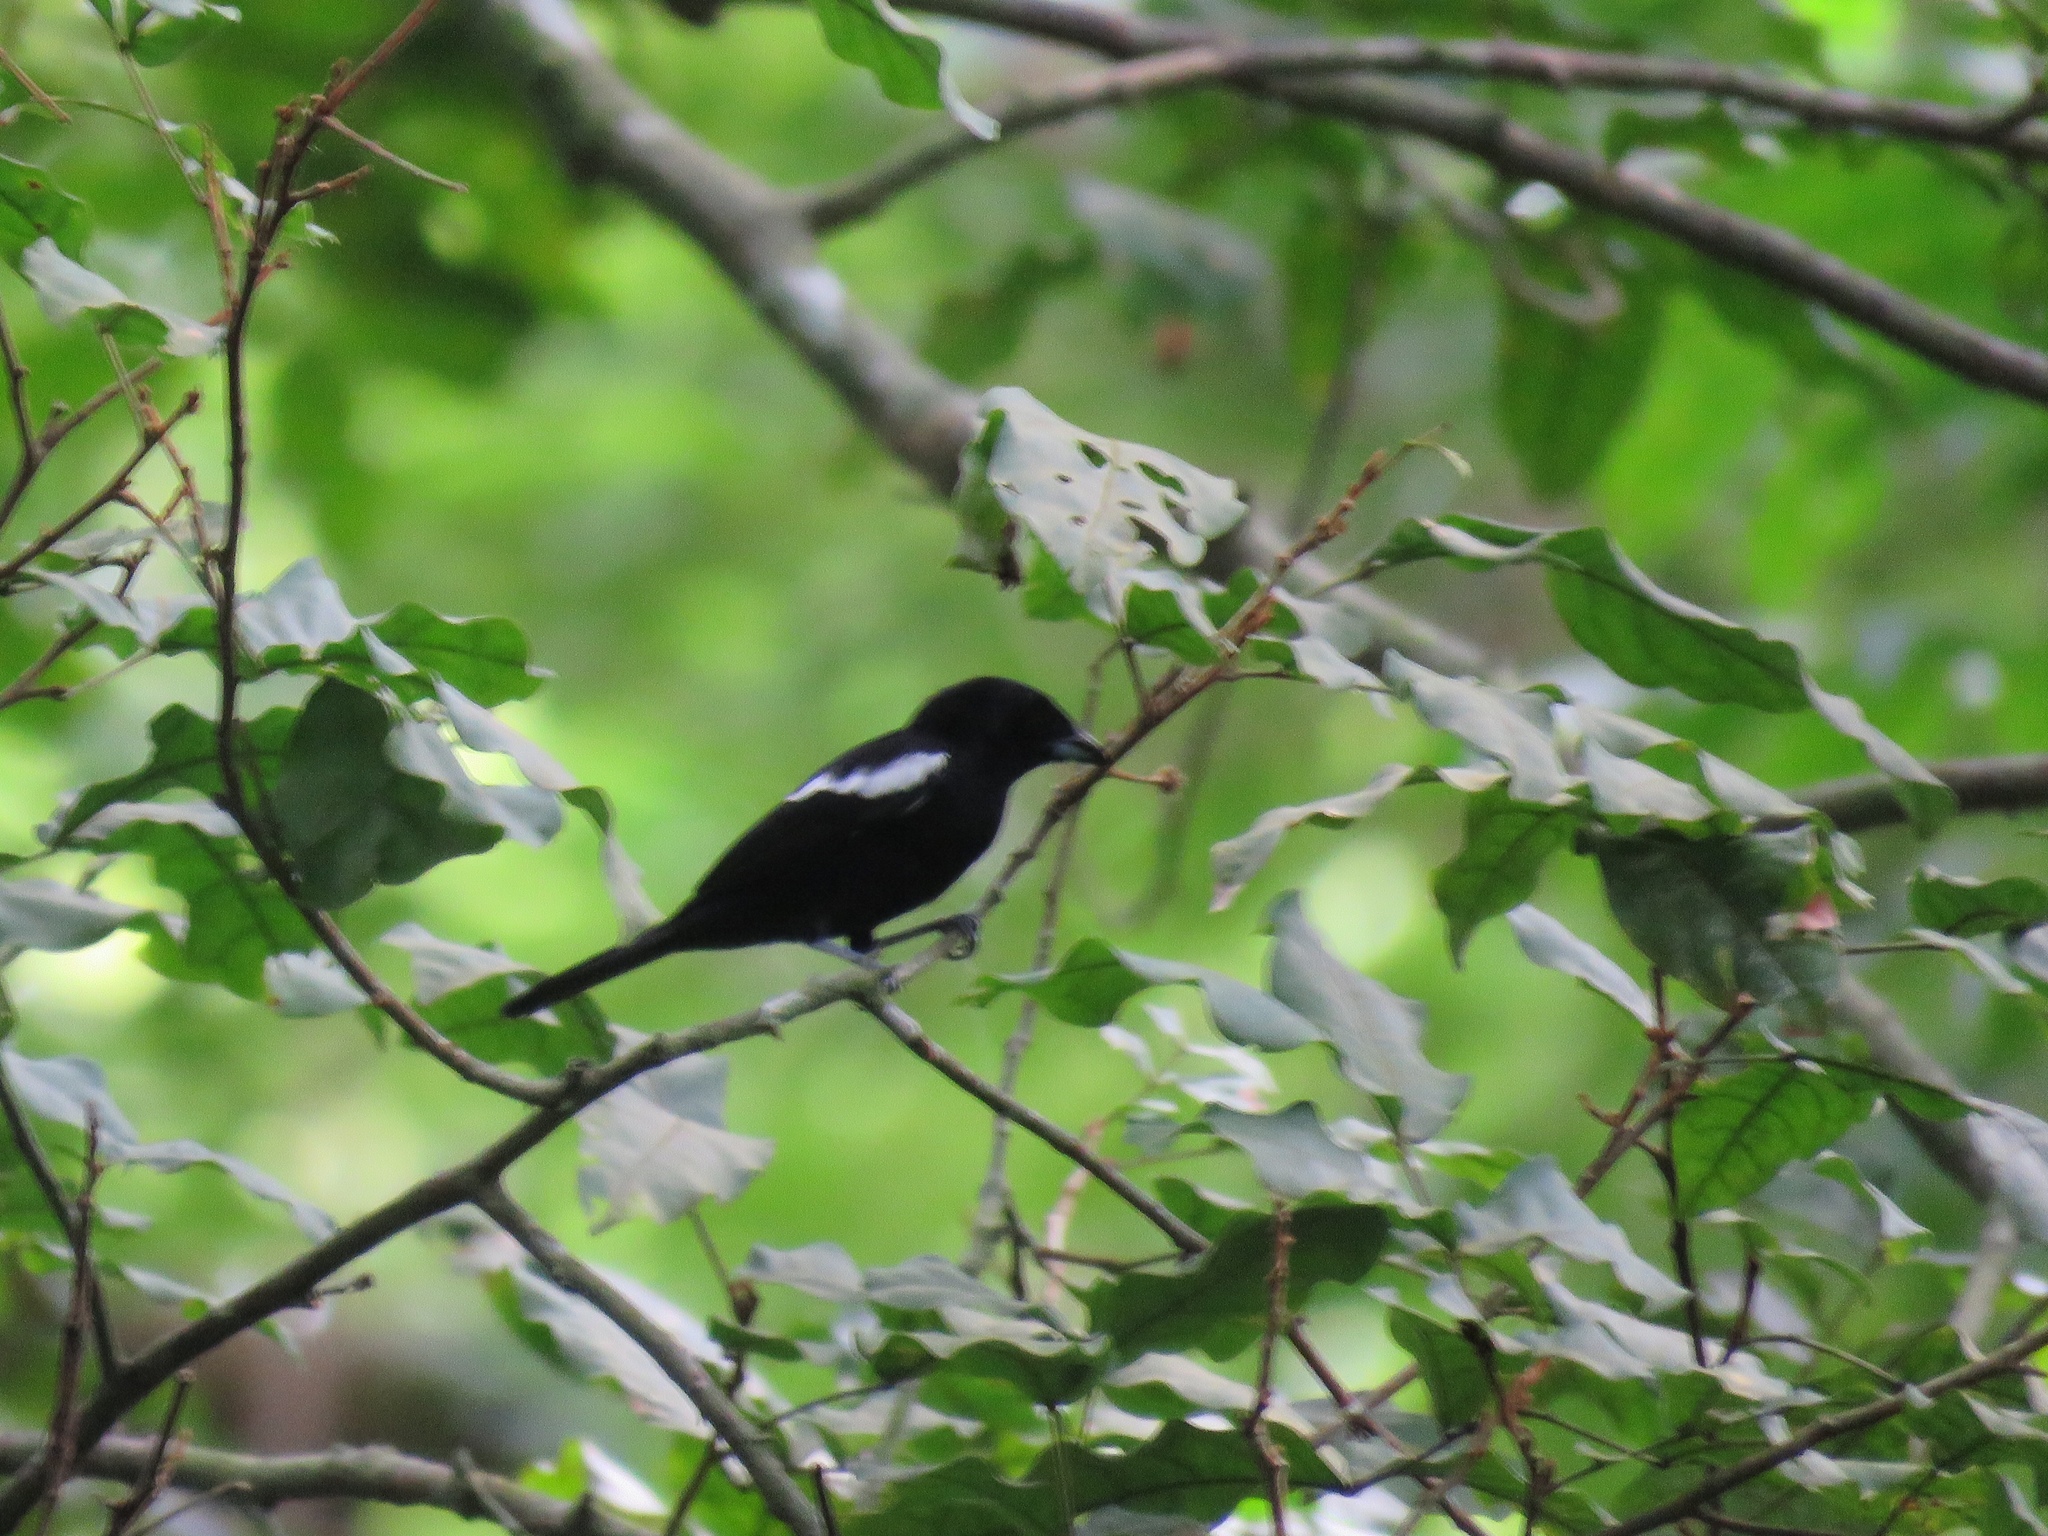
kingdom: Animalia
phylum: Chordata
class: Aves
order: Passeriformes
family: Thraupidae
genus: Loriotus
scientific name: Loriotus luctuosus
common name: White-shouldered tanager
